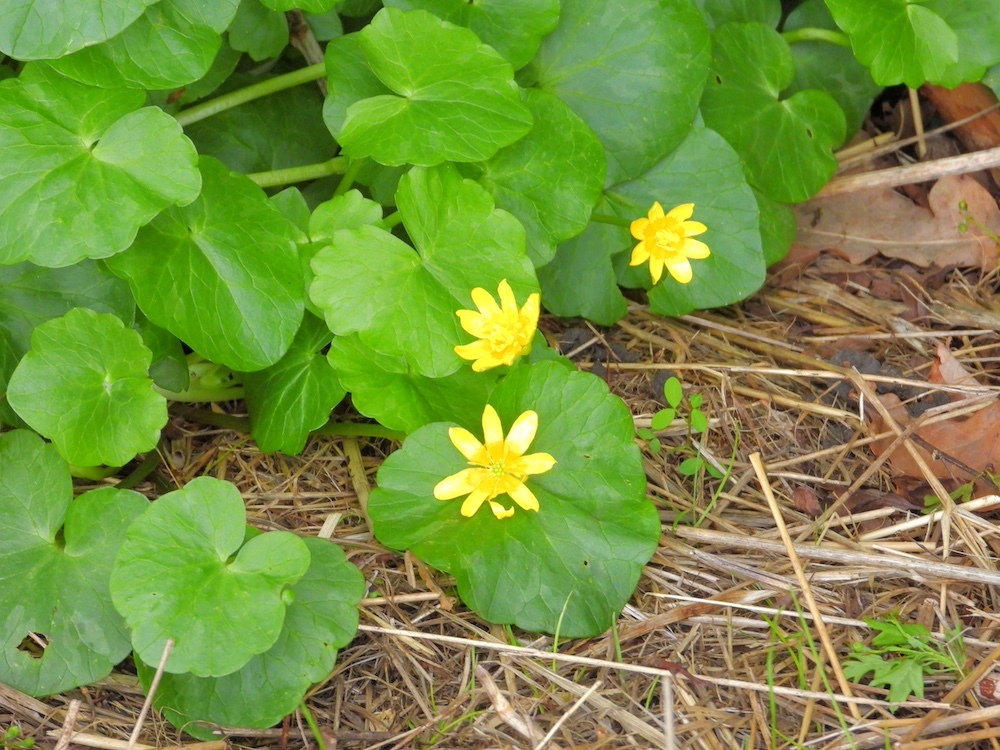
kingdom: Plantae
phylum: Tracheophyta
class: Magnoliopsida
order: Ranunculales
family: Ranunculaceae
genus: Ficaria
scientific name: Ficaria verna
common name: Lesser celandine
